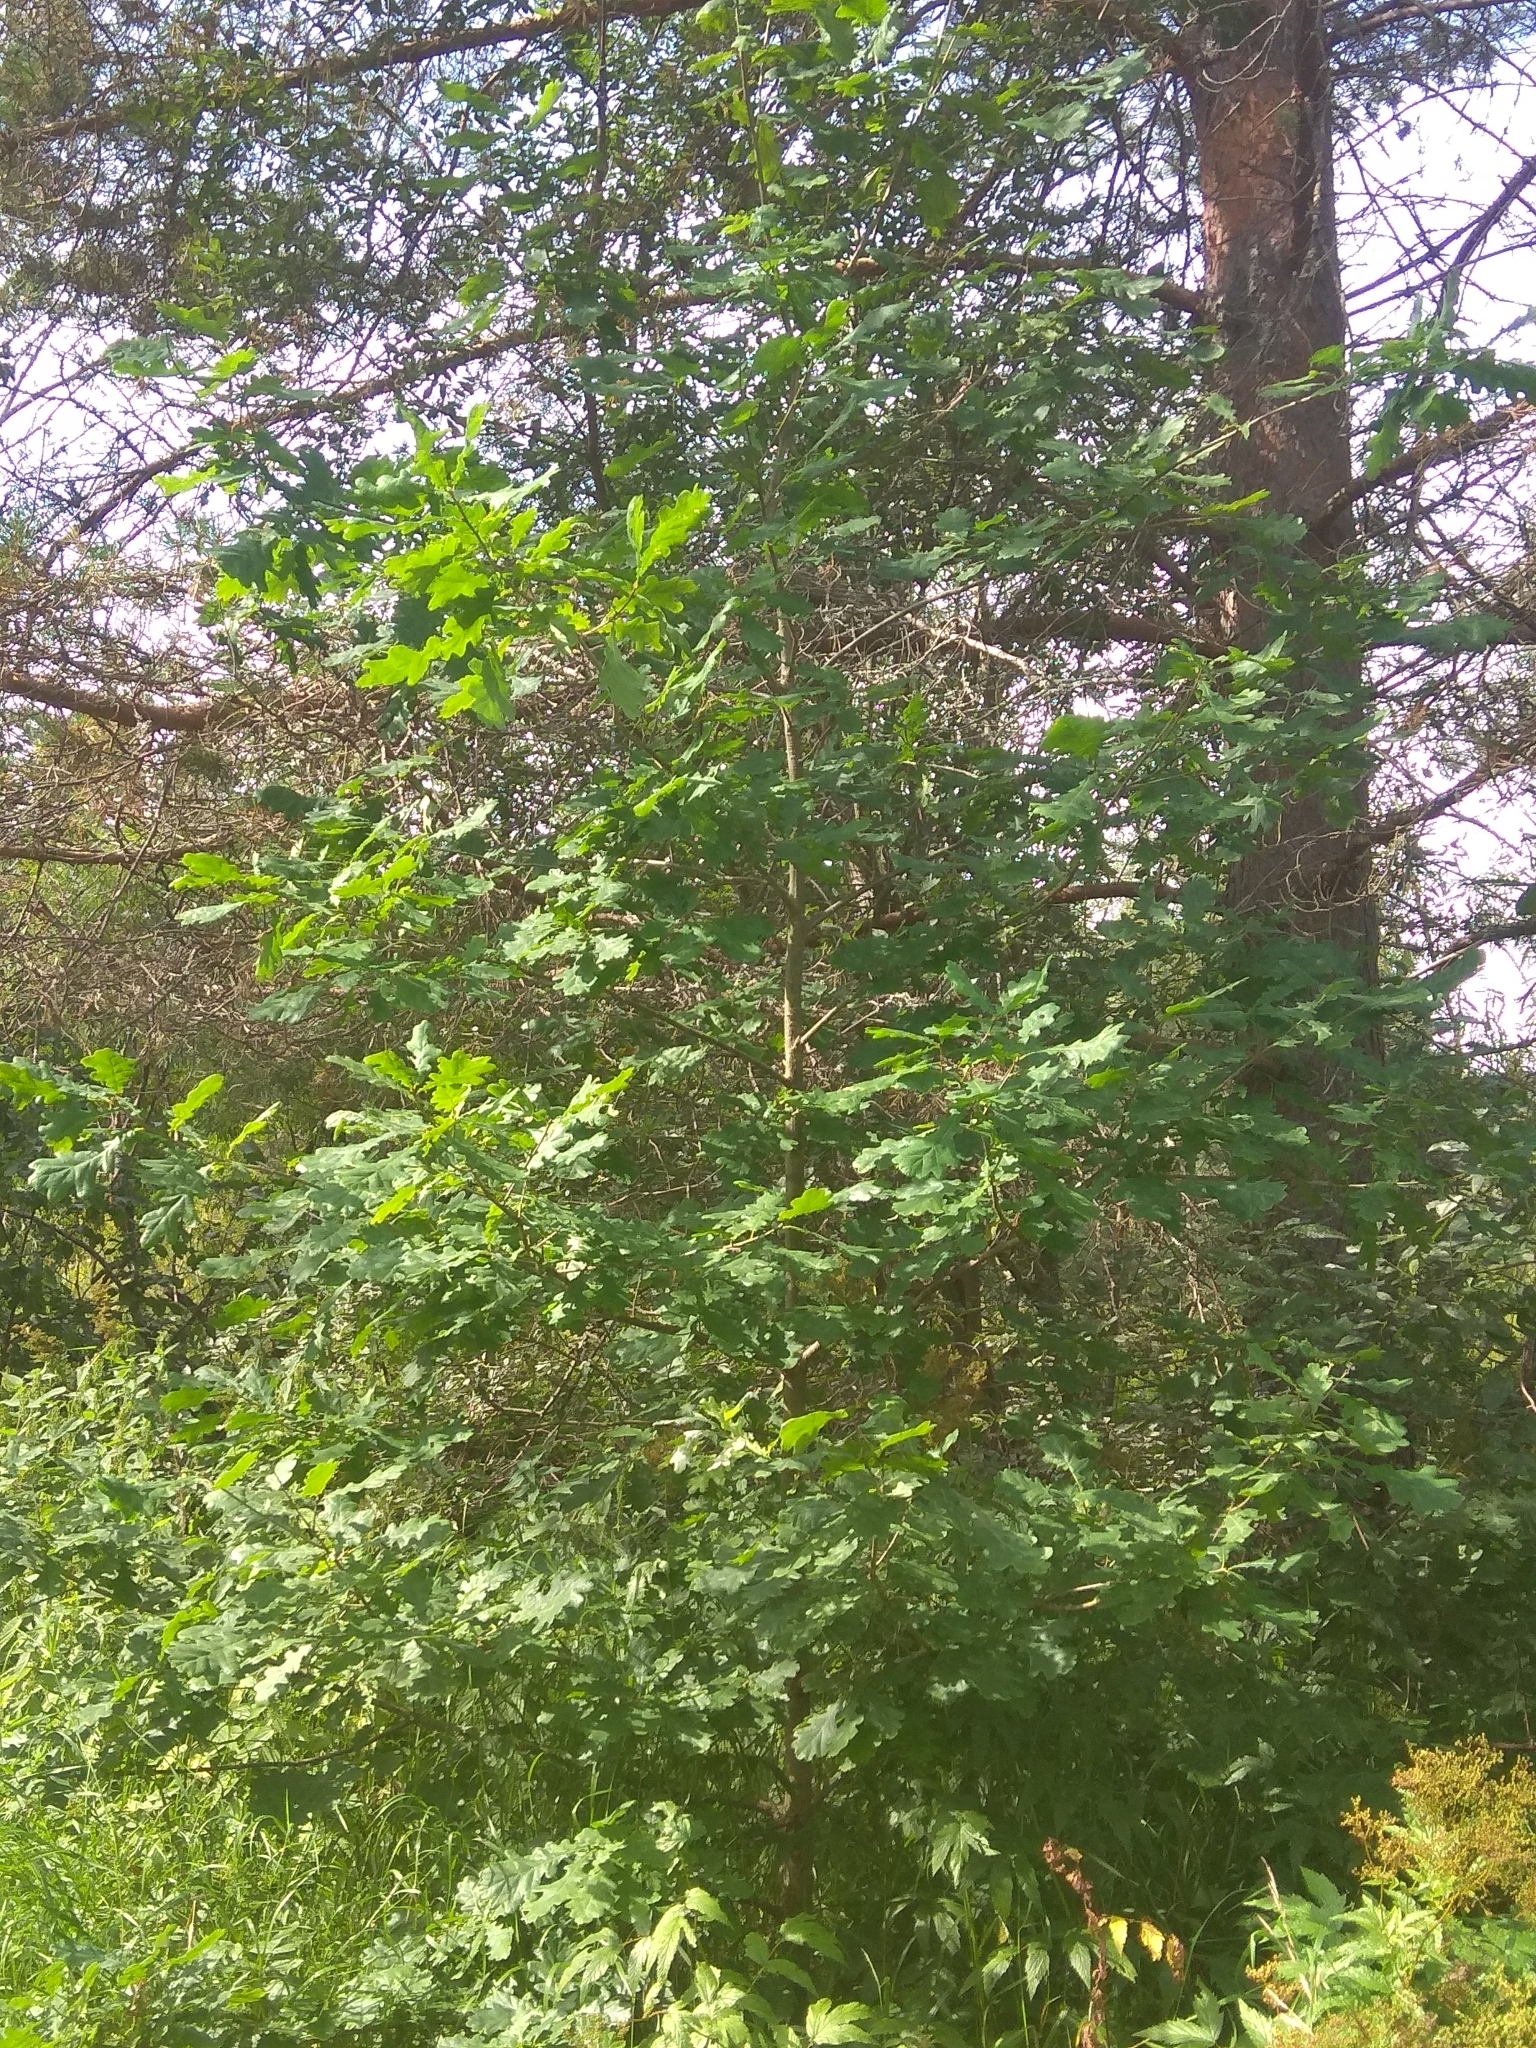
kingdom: Plantae
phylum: Tracheophyta
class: Magnoliopsida
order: Fagales
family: Fagaceae
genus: Quercus
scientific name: Quercus robur
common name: Pedunculate oak
